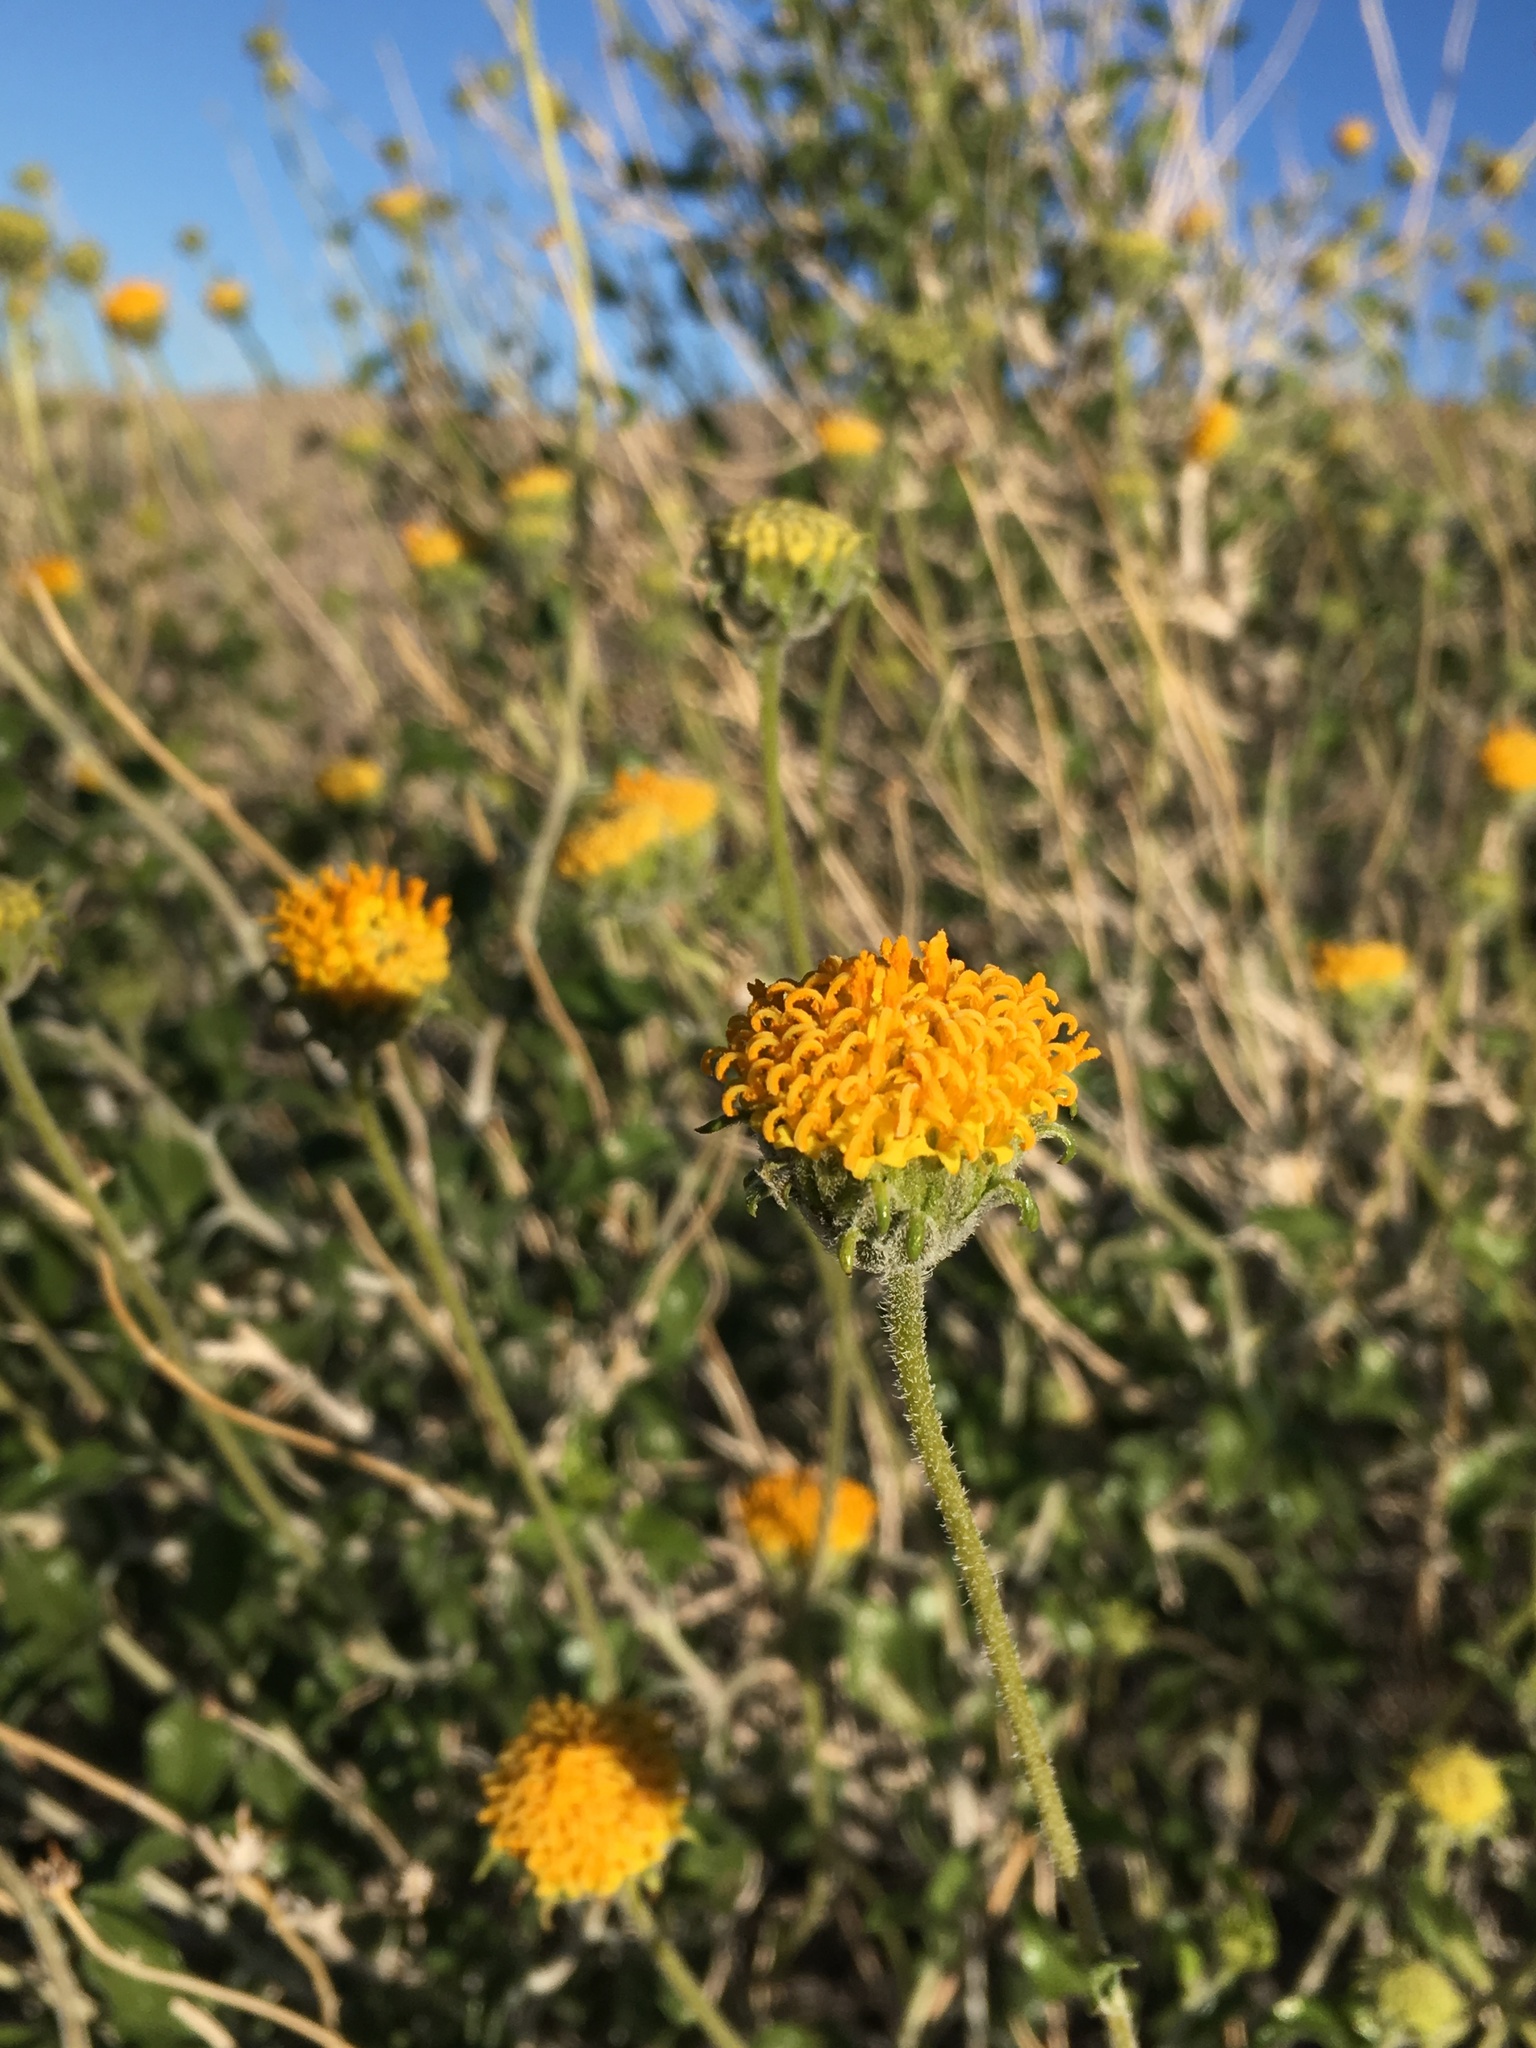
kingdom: Plantae
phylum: Tracheophyta
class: Magnoliopsida
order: Asterales
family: Asteraceae
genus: Encelia
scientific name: Encelia frutescens
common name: Bush encelia
